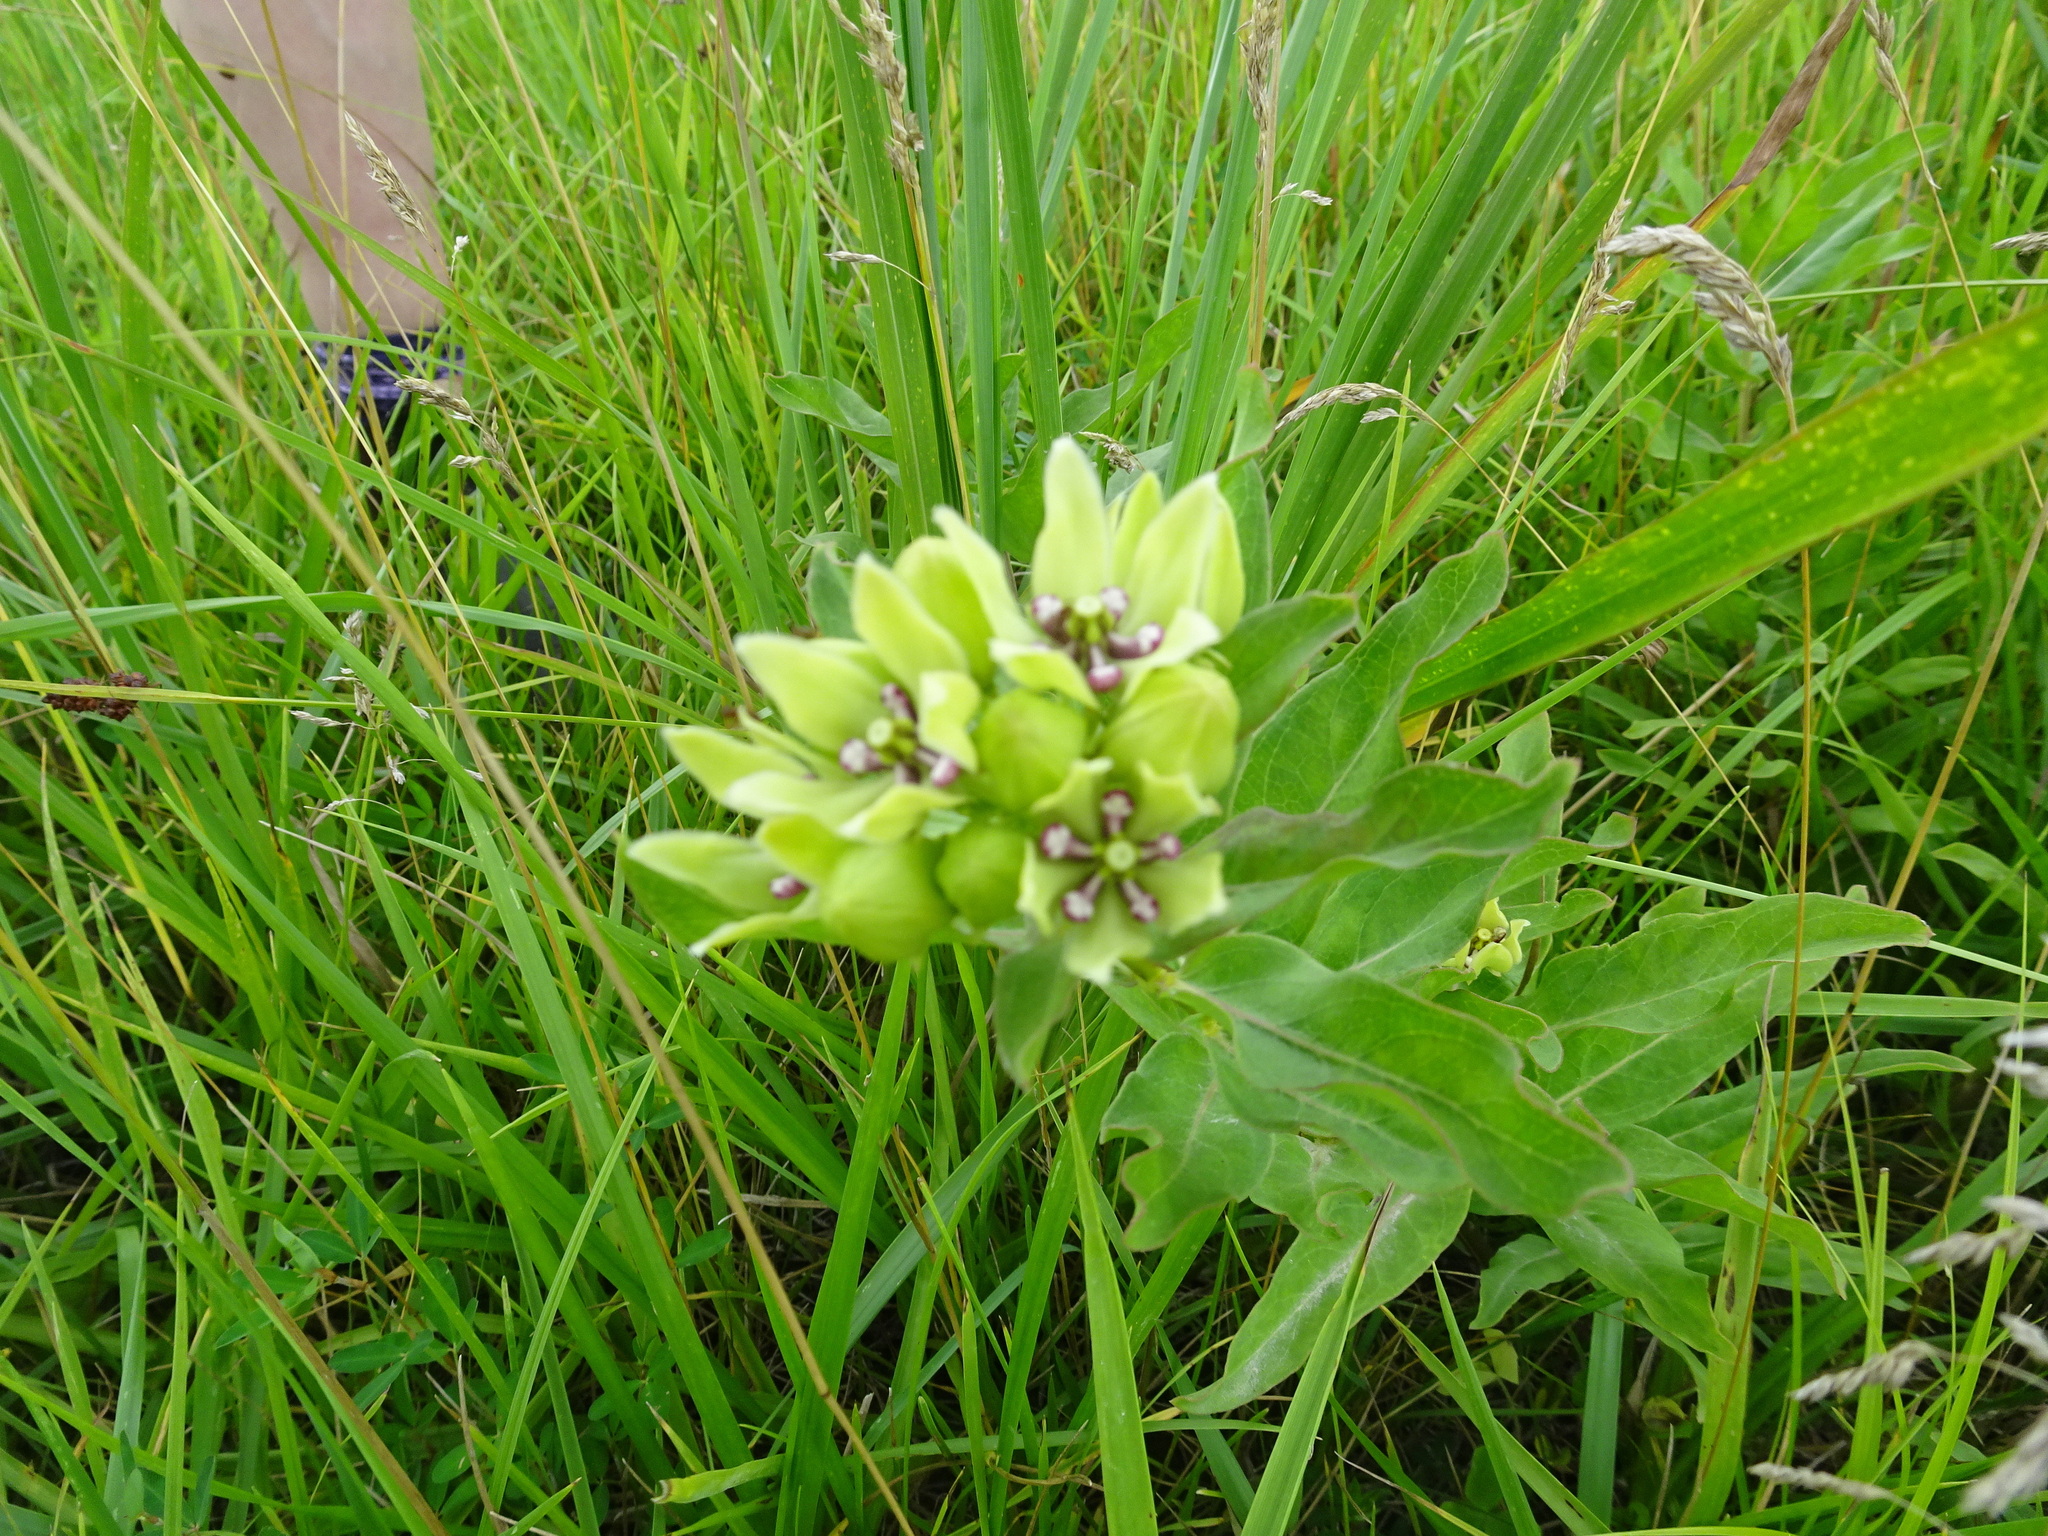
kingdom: Plantae
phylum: Tracheophyta
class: Magnoliopsida
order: Gentianales
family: Apocynaceae
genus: Asclepias
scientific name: Asclepias viridis
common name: Antelope-horns
